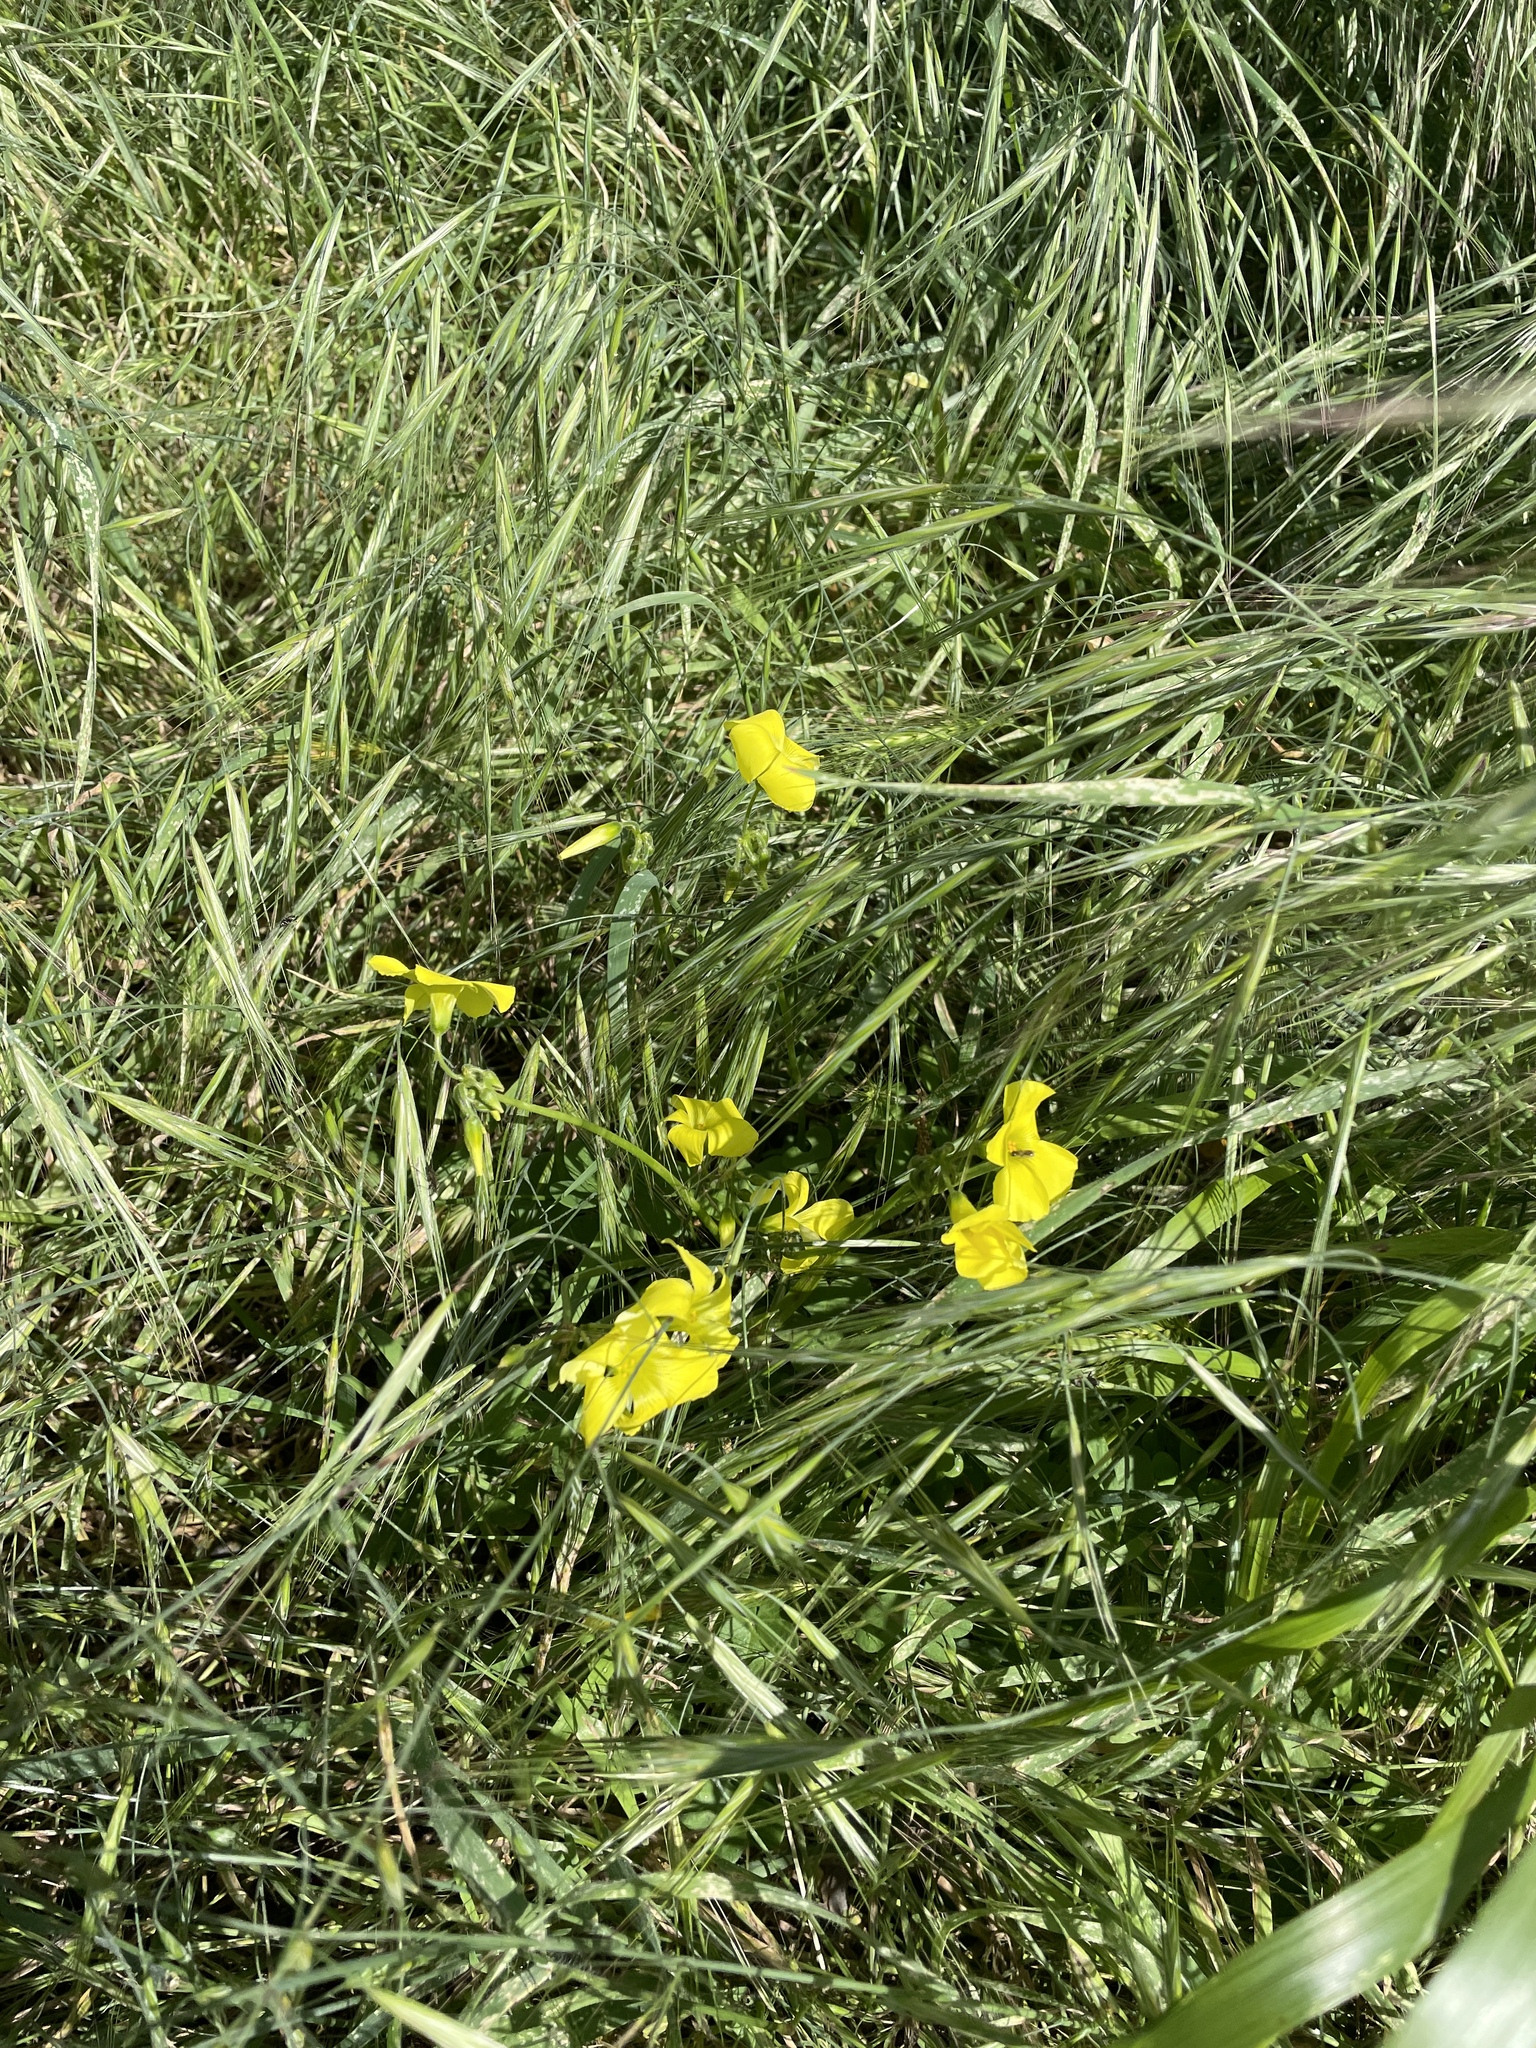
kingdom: Plantae
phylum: Tracheophyta
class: Magnoliopsida
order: Oxalidales
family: Oxalidaceae
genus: Oxalis
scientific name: Oxalis pes-caprae
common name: Bermuda-buttercup
